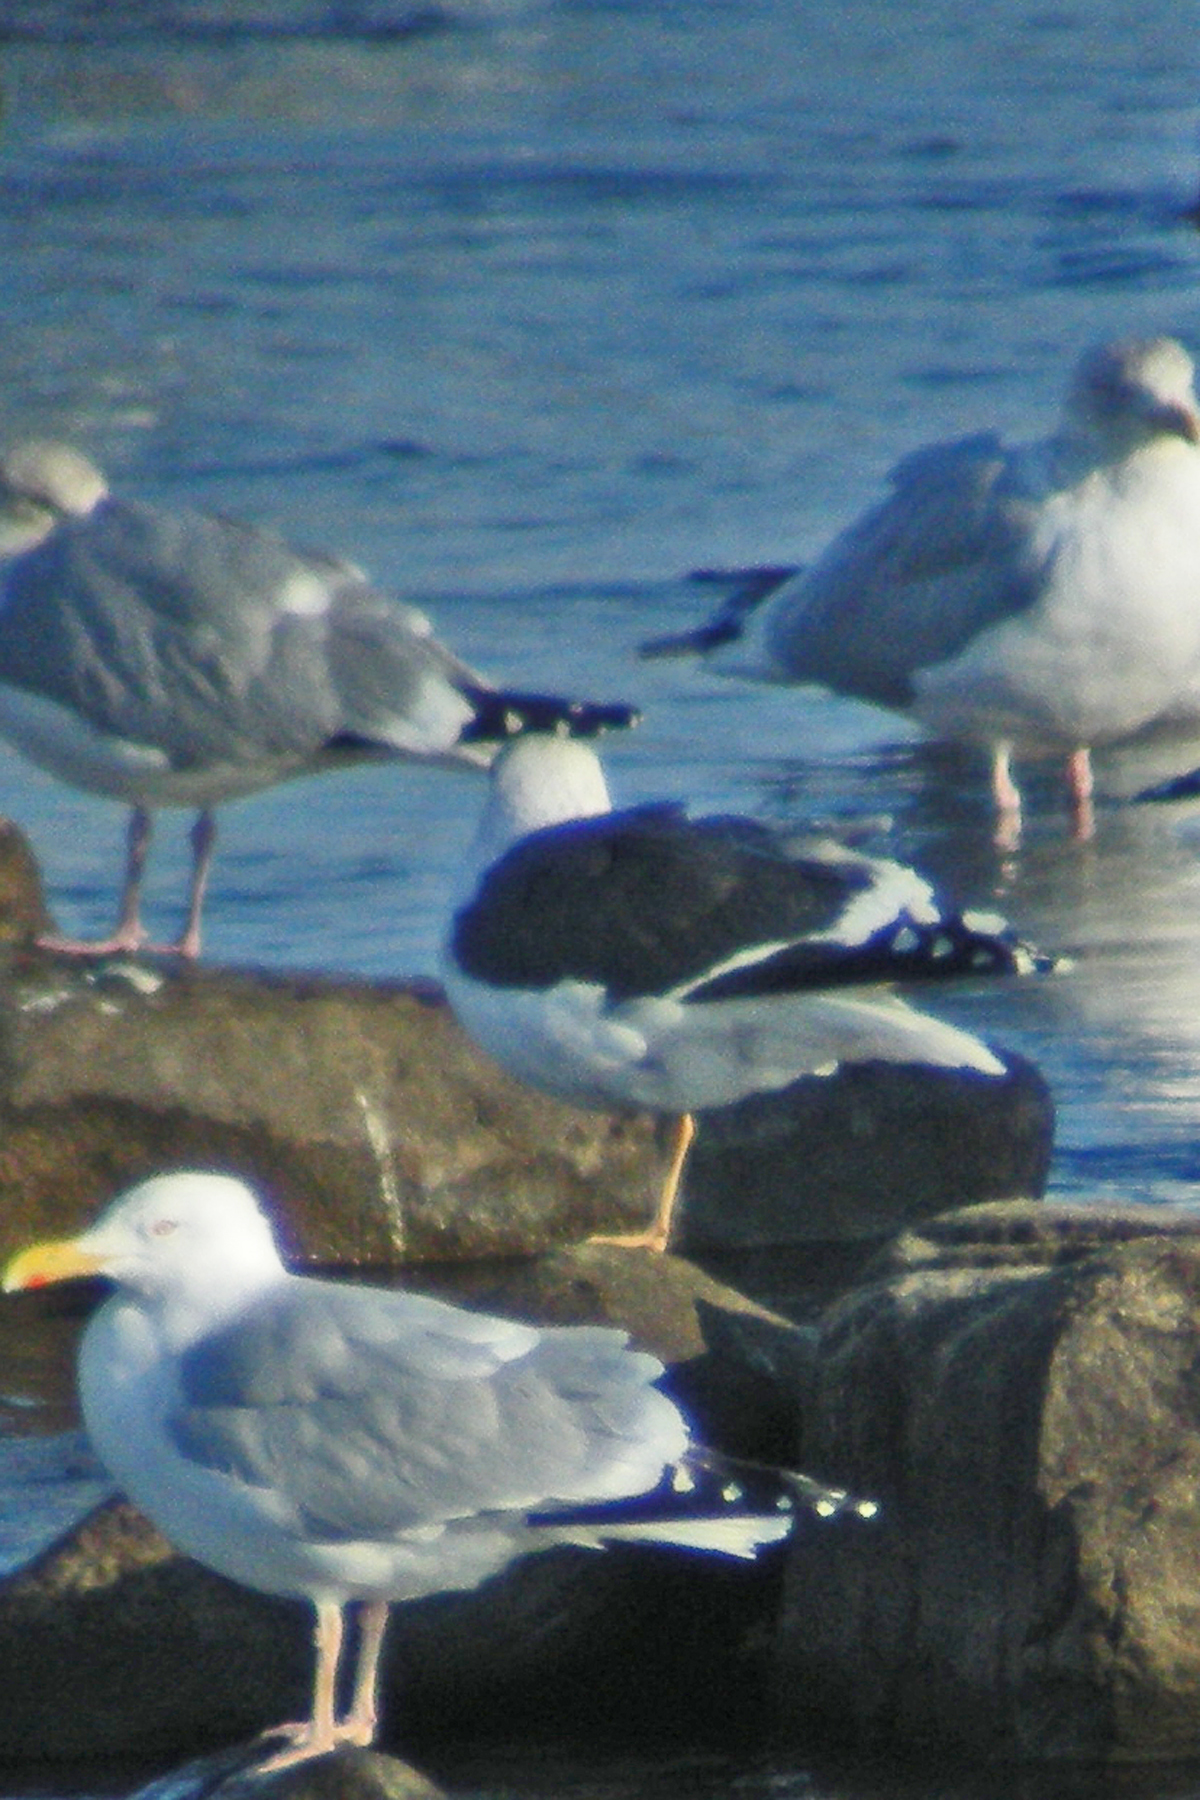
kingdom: Animalia
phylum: Chordata
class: Aves
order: Charadriiformes
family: Laridae
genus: Larus
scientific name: Larus fuscus
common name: Lesser black-backed gull
